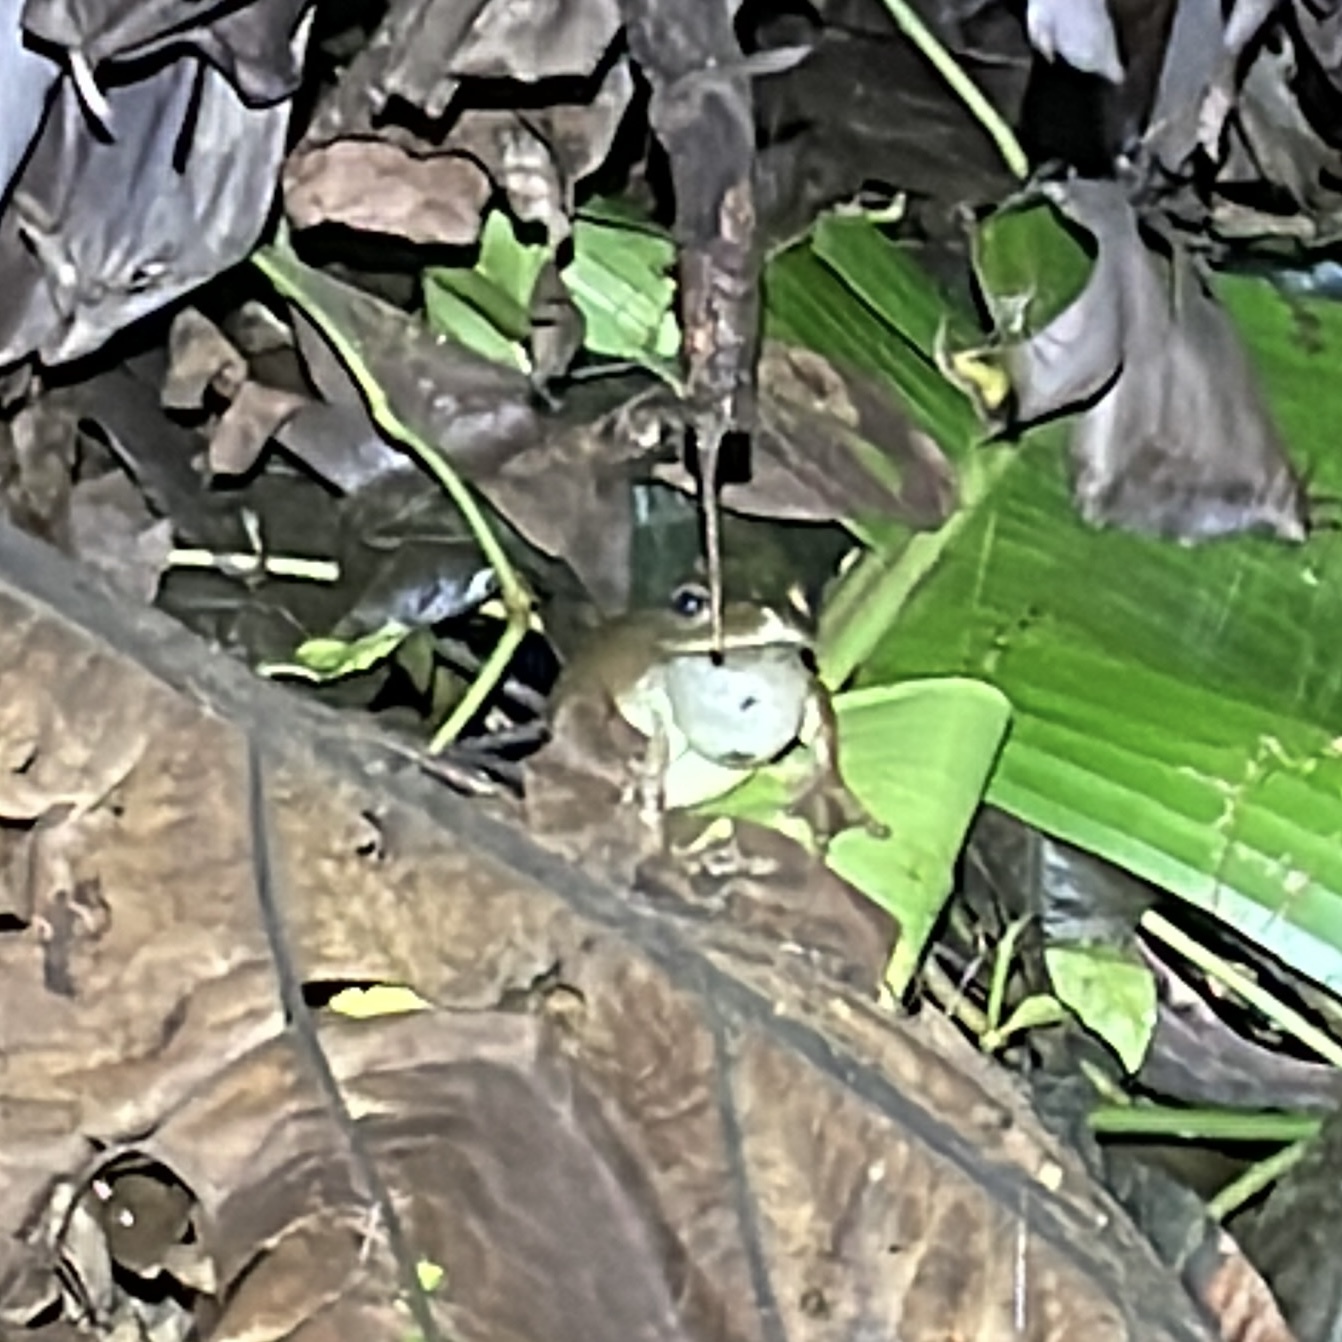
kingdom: Animalia
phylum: Chordata
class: Amphibia
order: Anura
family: Hylidae
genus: Boana
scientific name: Boana boans
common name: Giant gladiator treefrog
